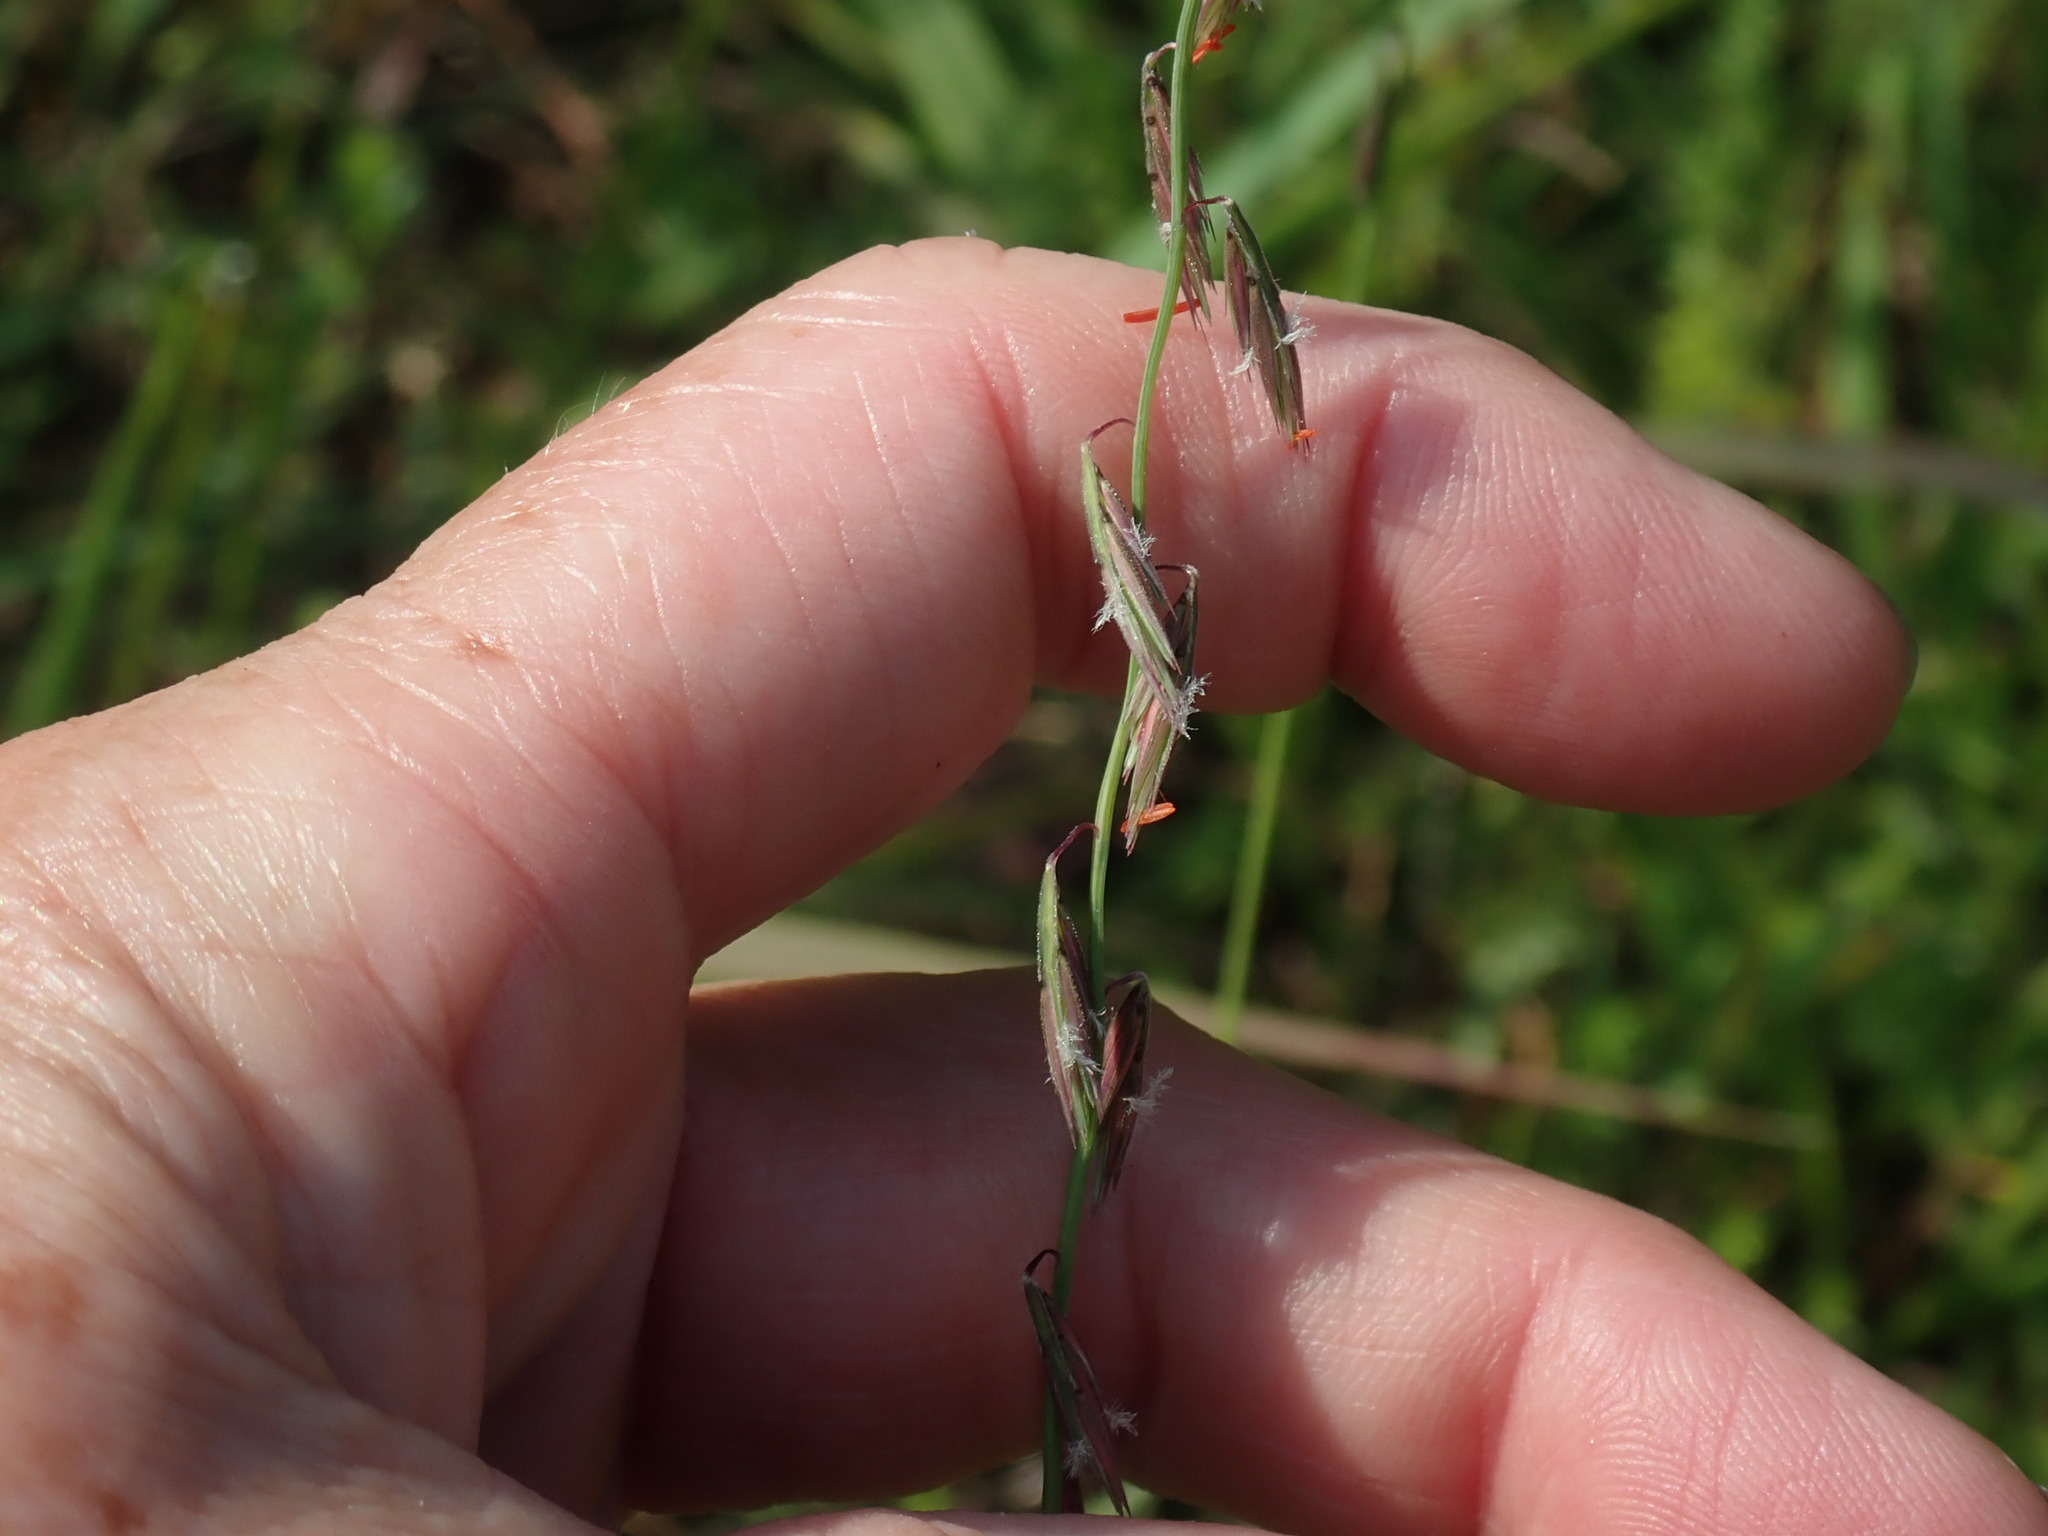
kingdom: Plantae
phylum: Tracheophyta
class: Liliopsida
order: Poales
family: Poaceae
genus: Bouteloua
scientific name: Bouteloua curtipendula
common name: Side-oats grama
